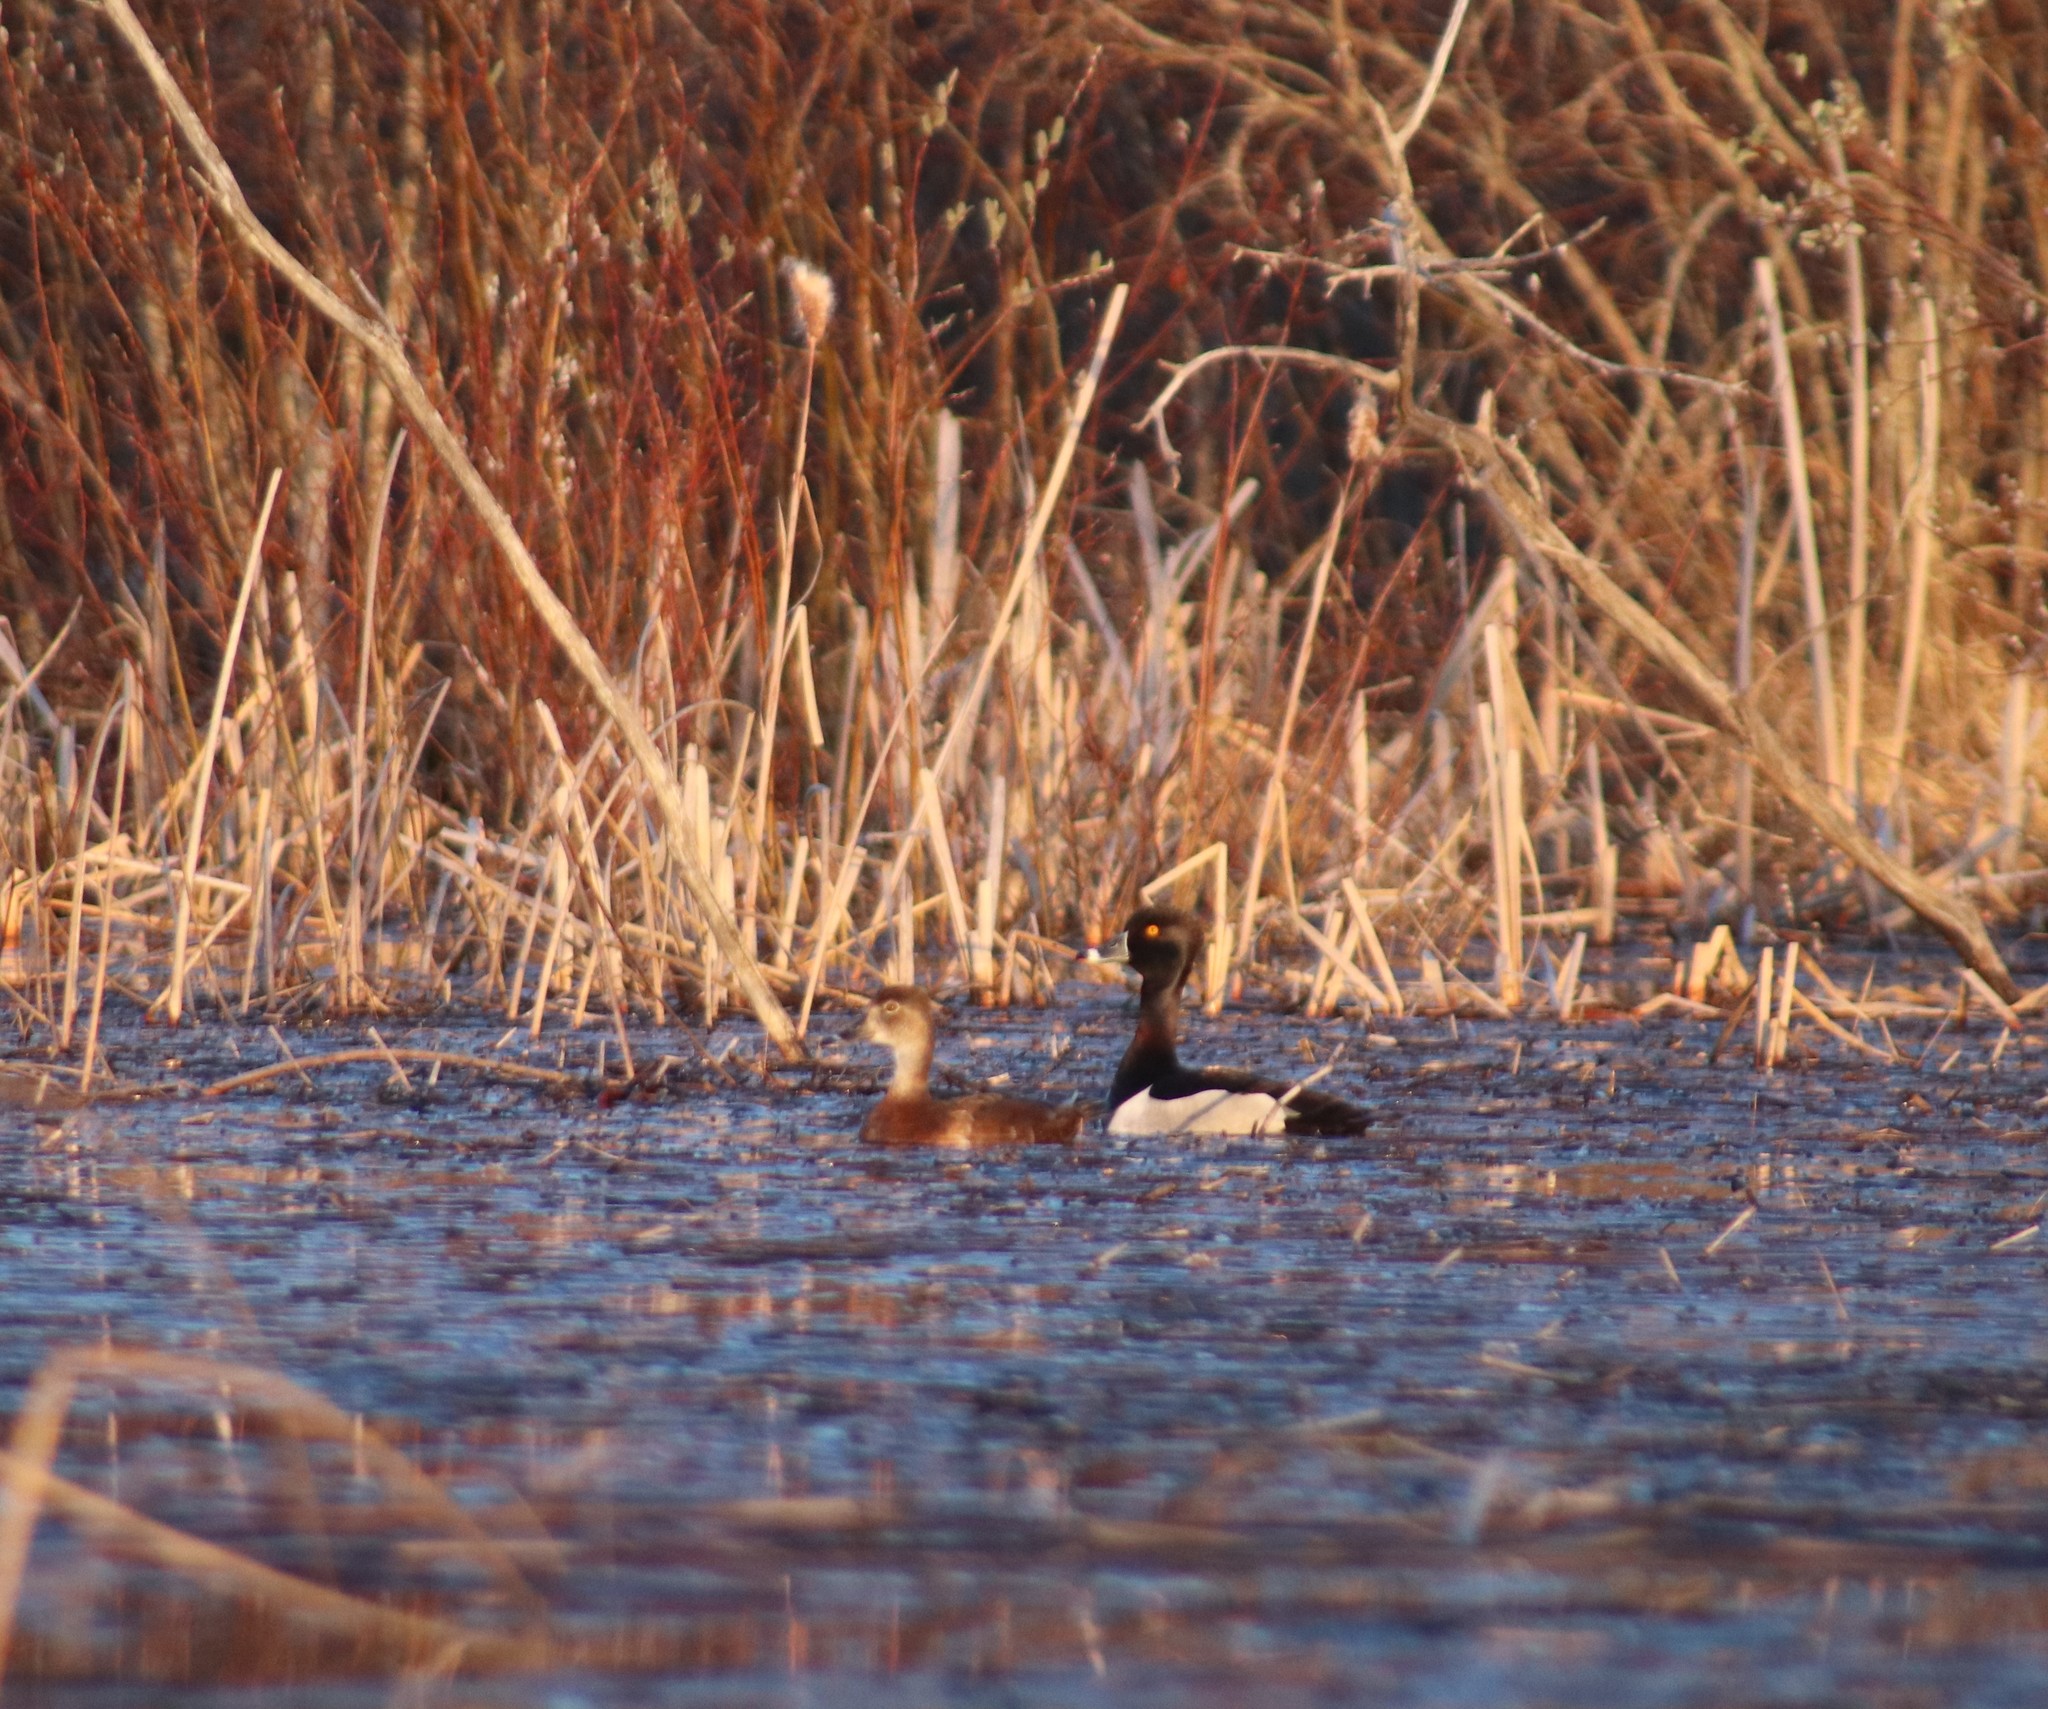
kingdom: Animalia
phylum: Chordata
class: Aves
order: Anseriformes
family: Anatidae
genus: Aythya
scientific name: Aythya collaris
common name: Ring-necked duck
